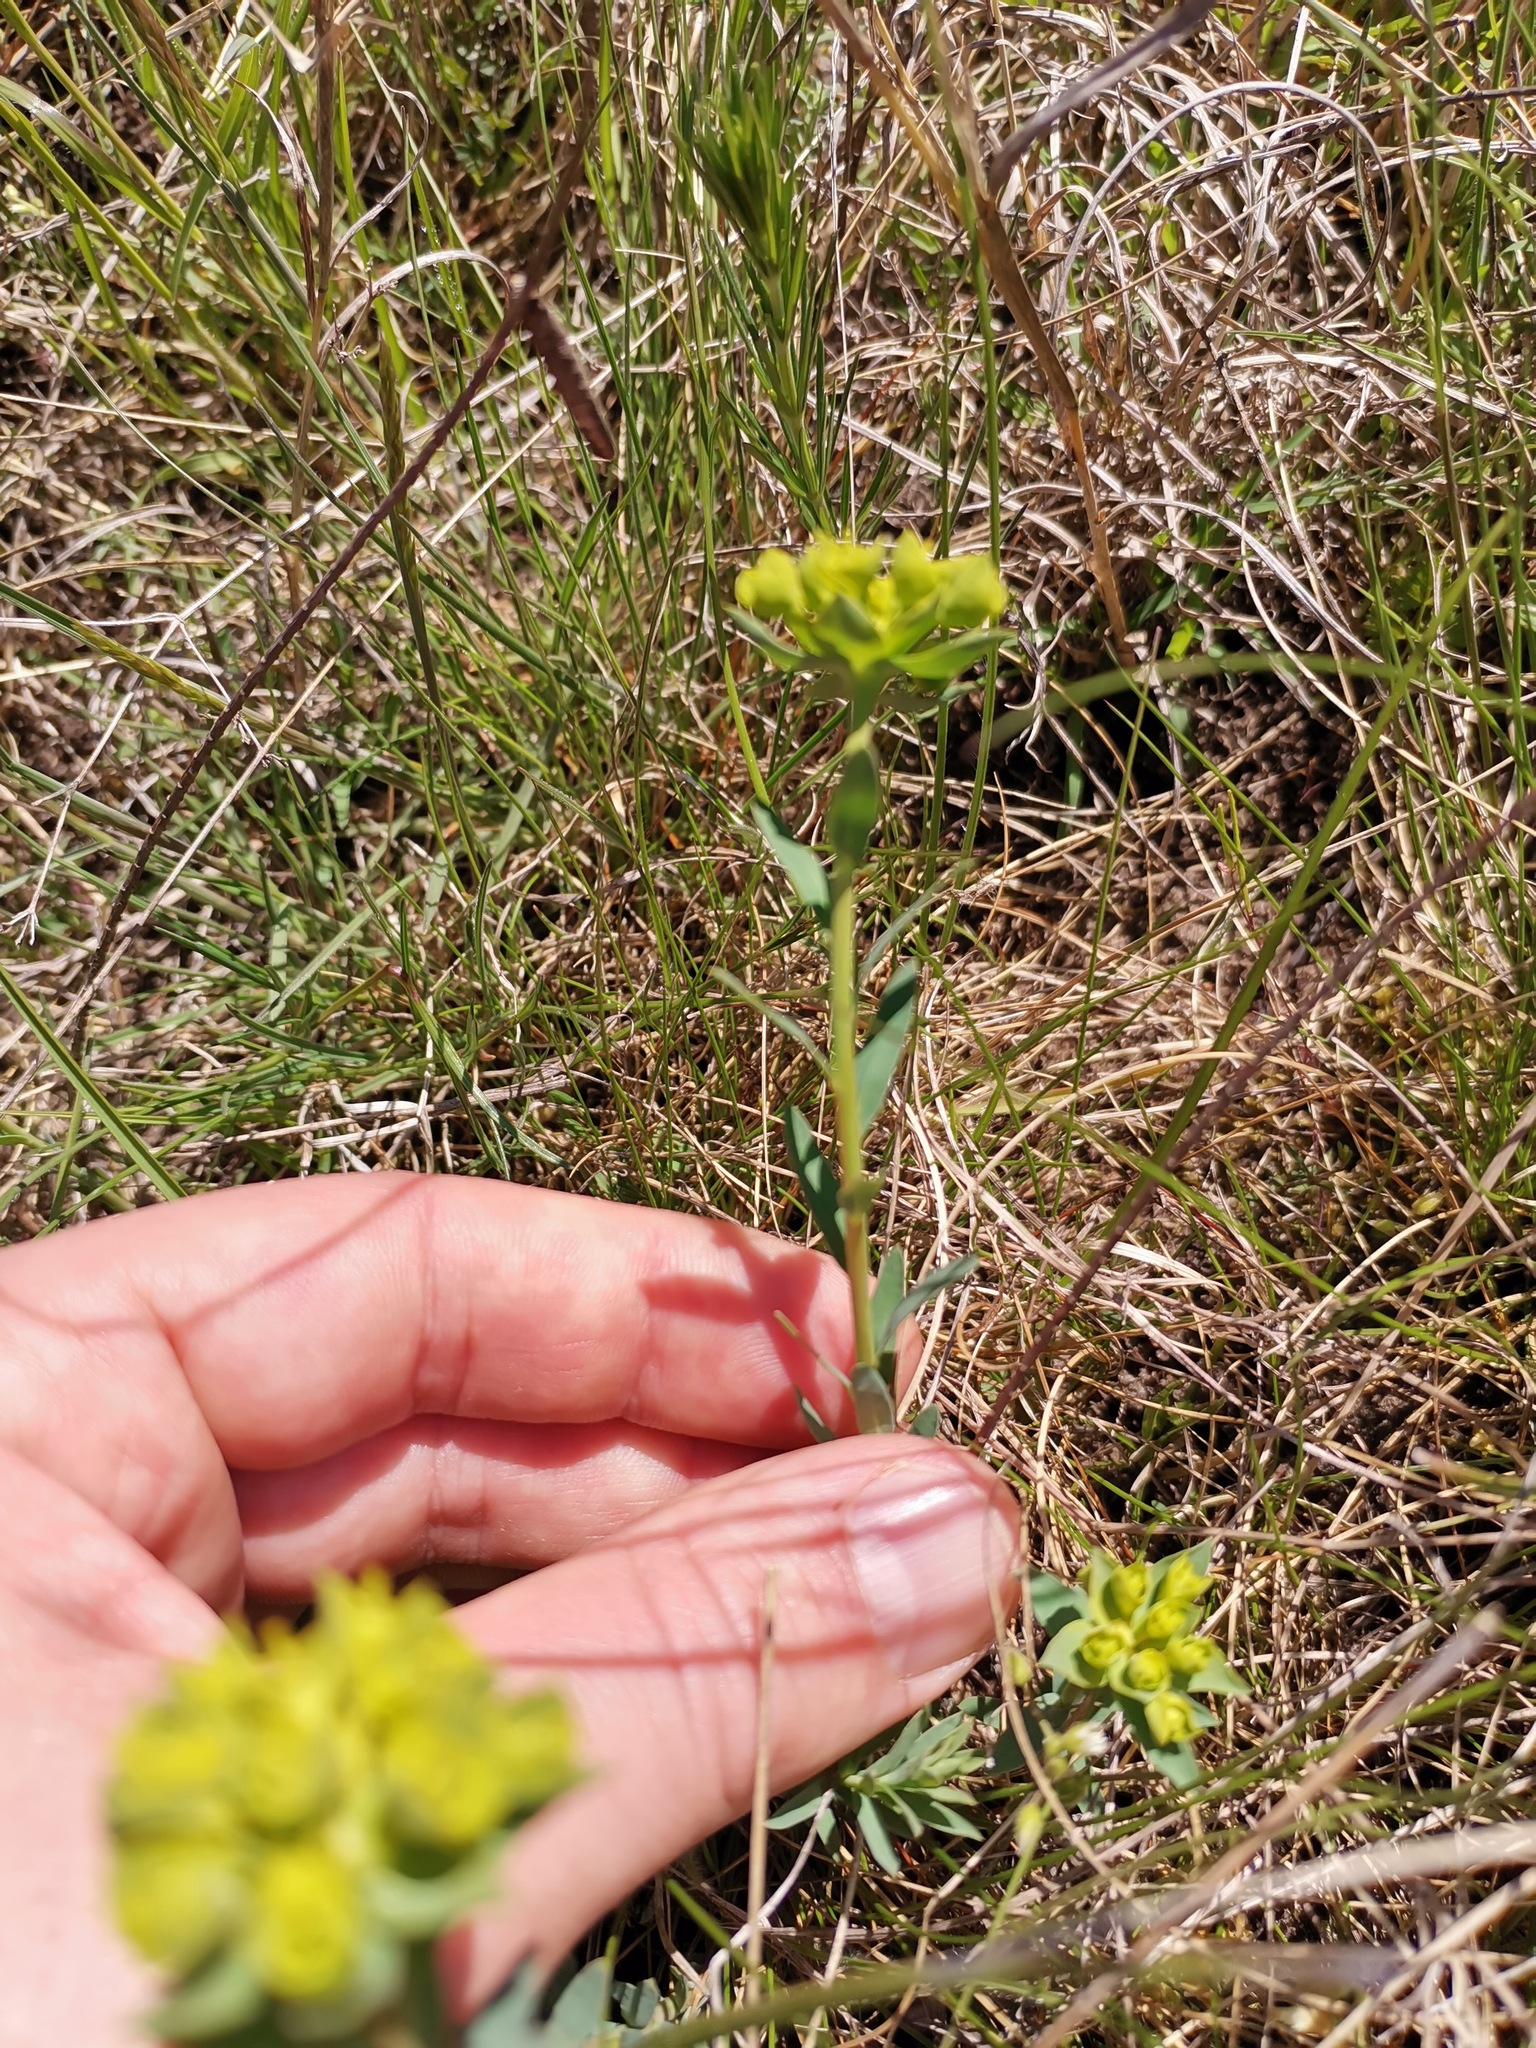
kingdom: Plantae
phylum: Tracheophyta
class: Magnoliopsida
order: Malpighiales
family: Euphorbiaceae
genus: Euphorbia
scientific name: Euphorbia seguieriana
